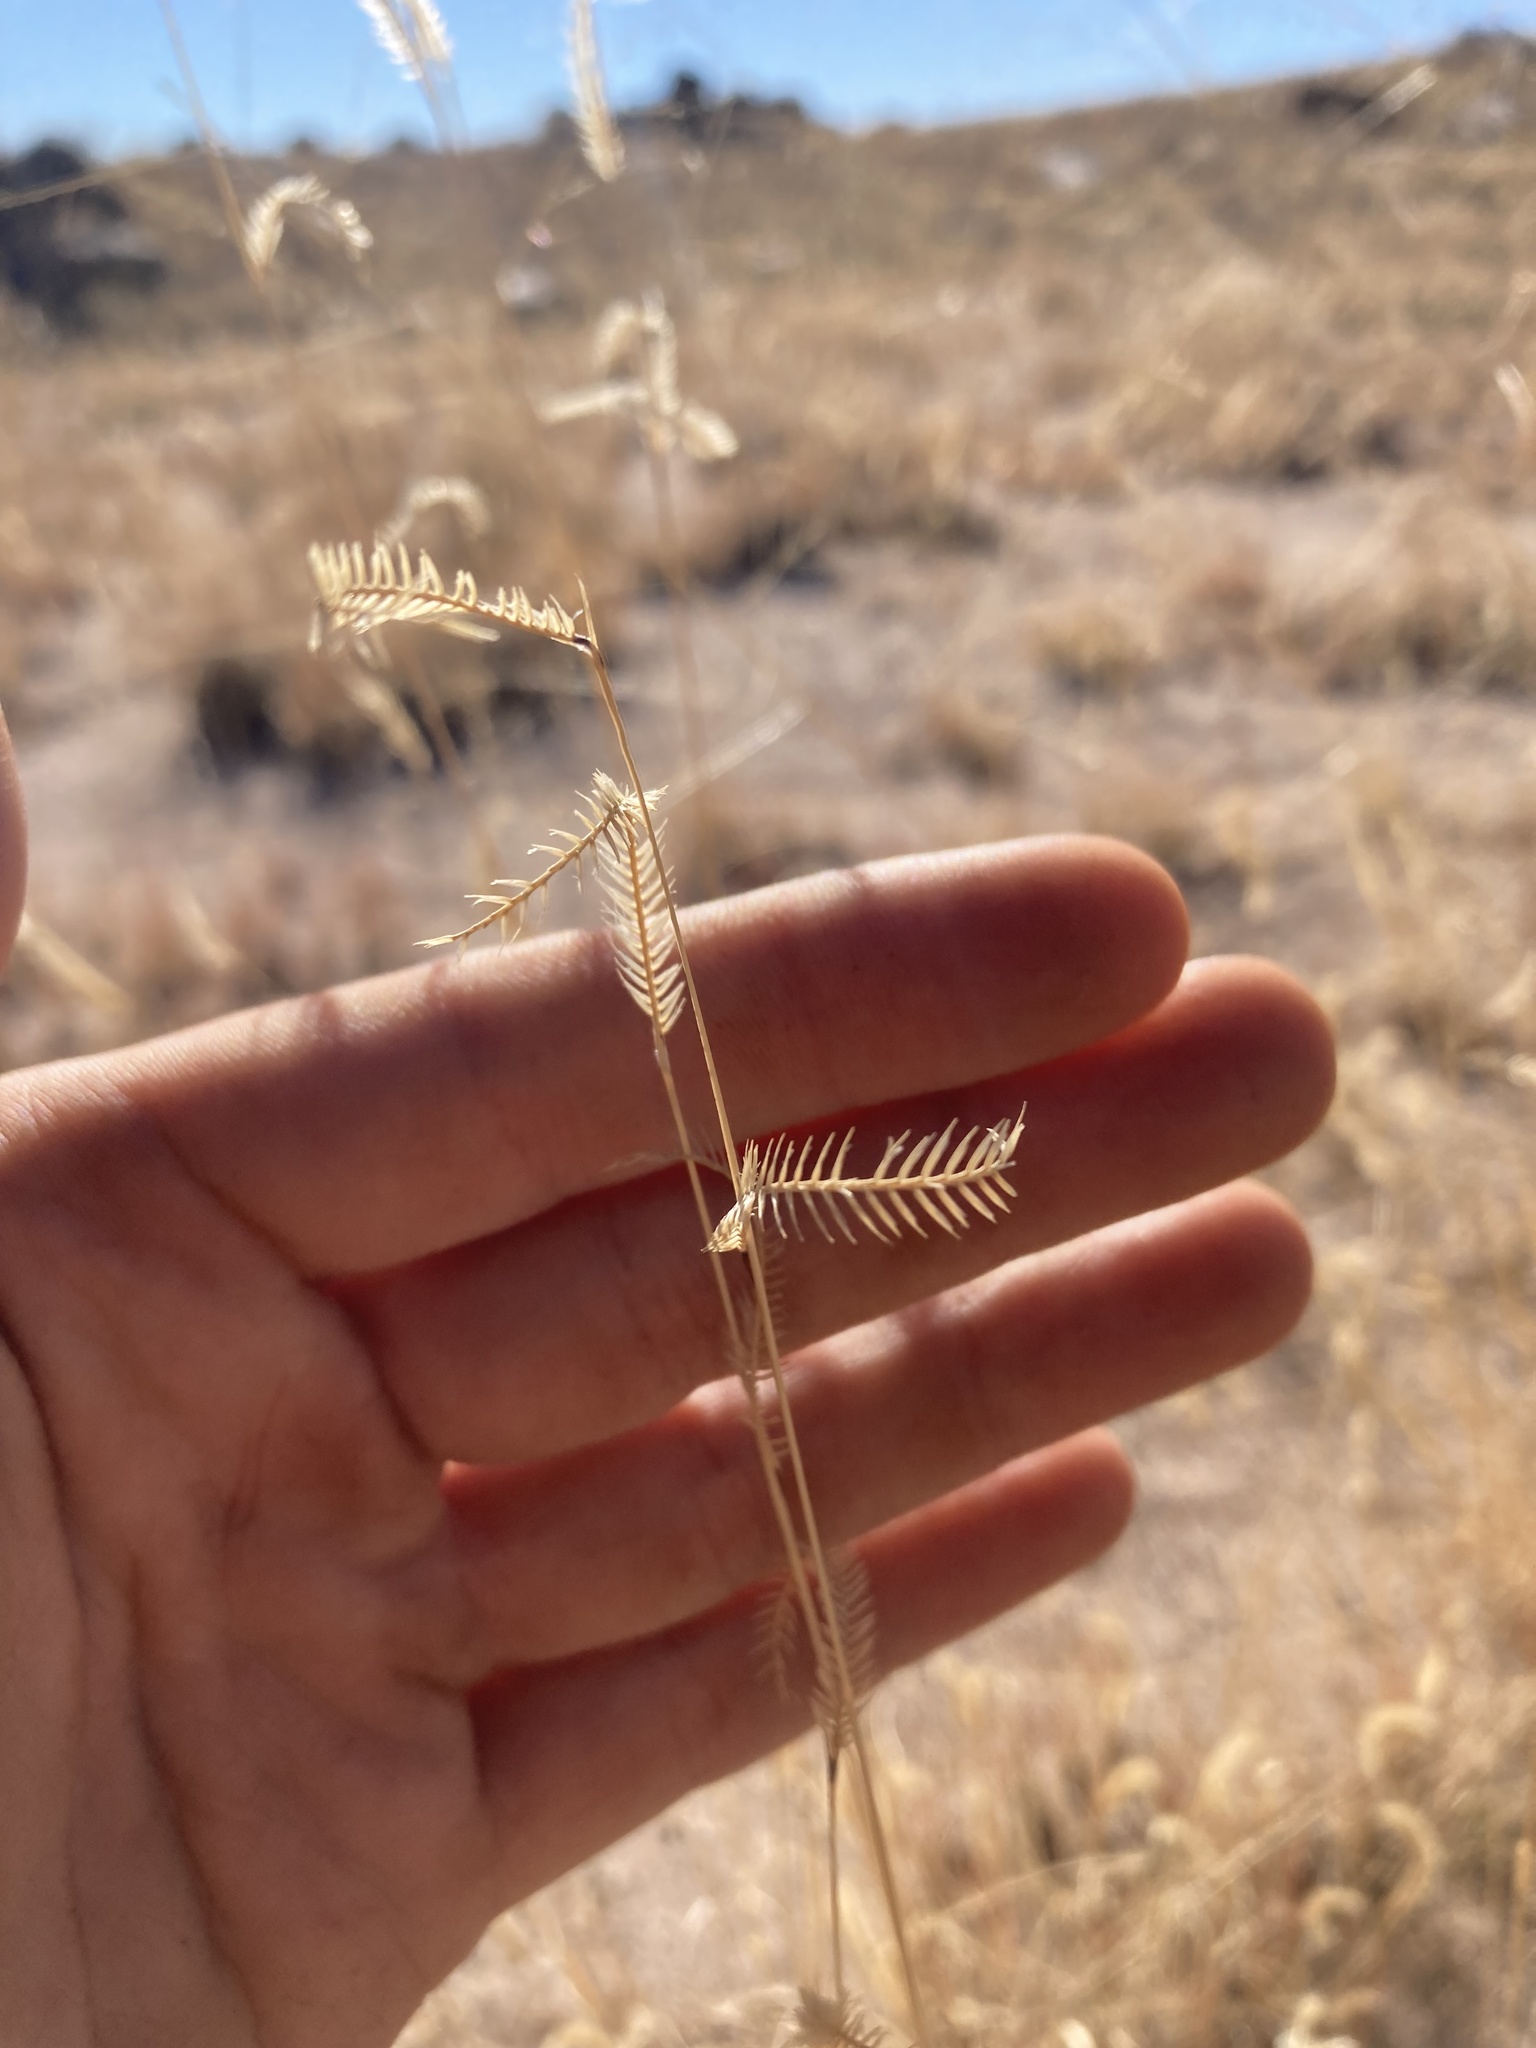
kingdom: Plantae
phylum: Tracheophyta
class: Liliopsida
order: Poales
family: Poaceae
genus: Bouteloua
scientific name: Bouteloua gracilis
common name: Blue grama
